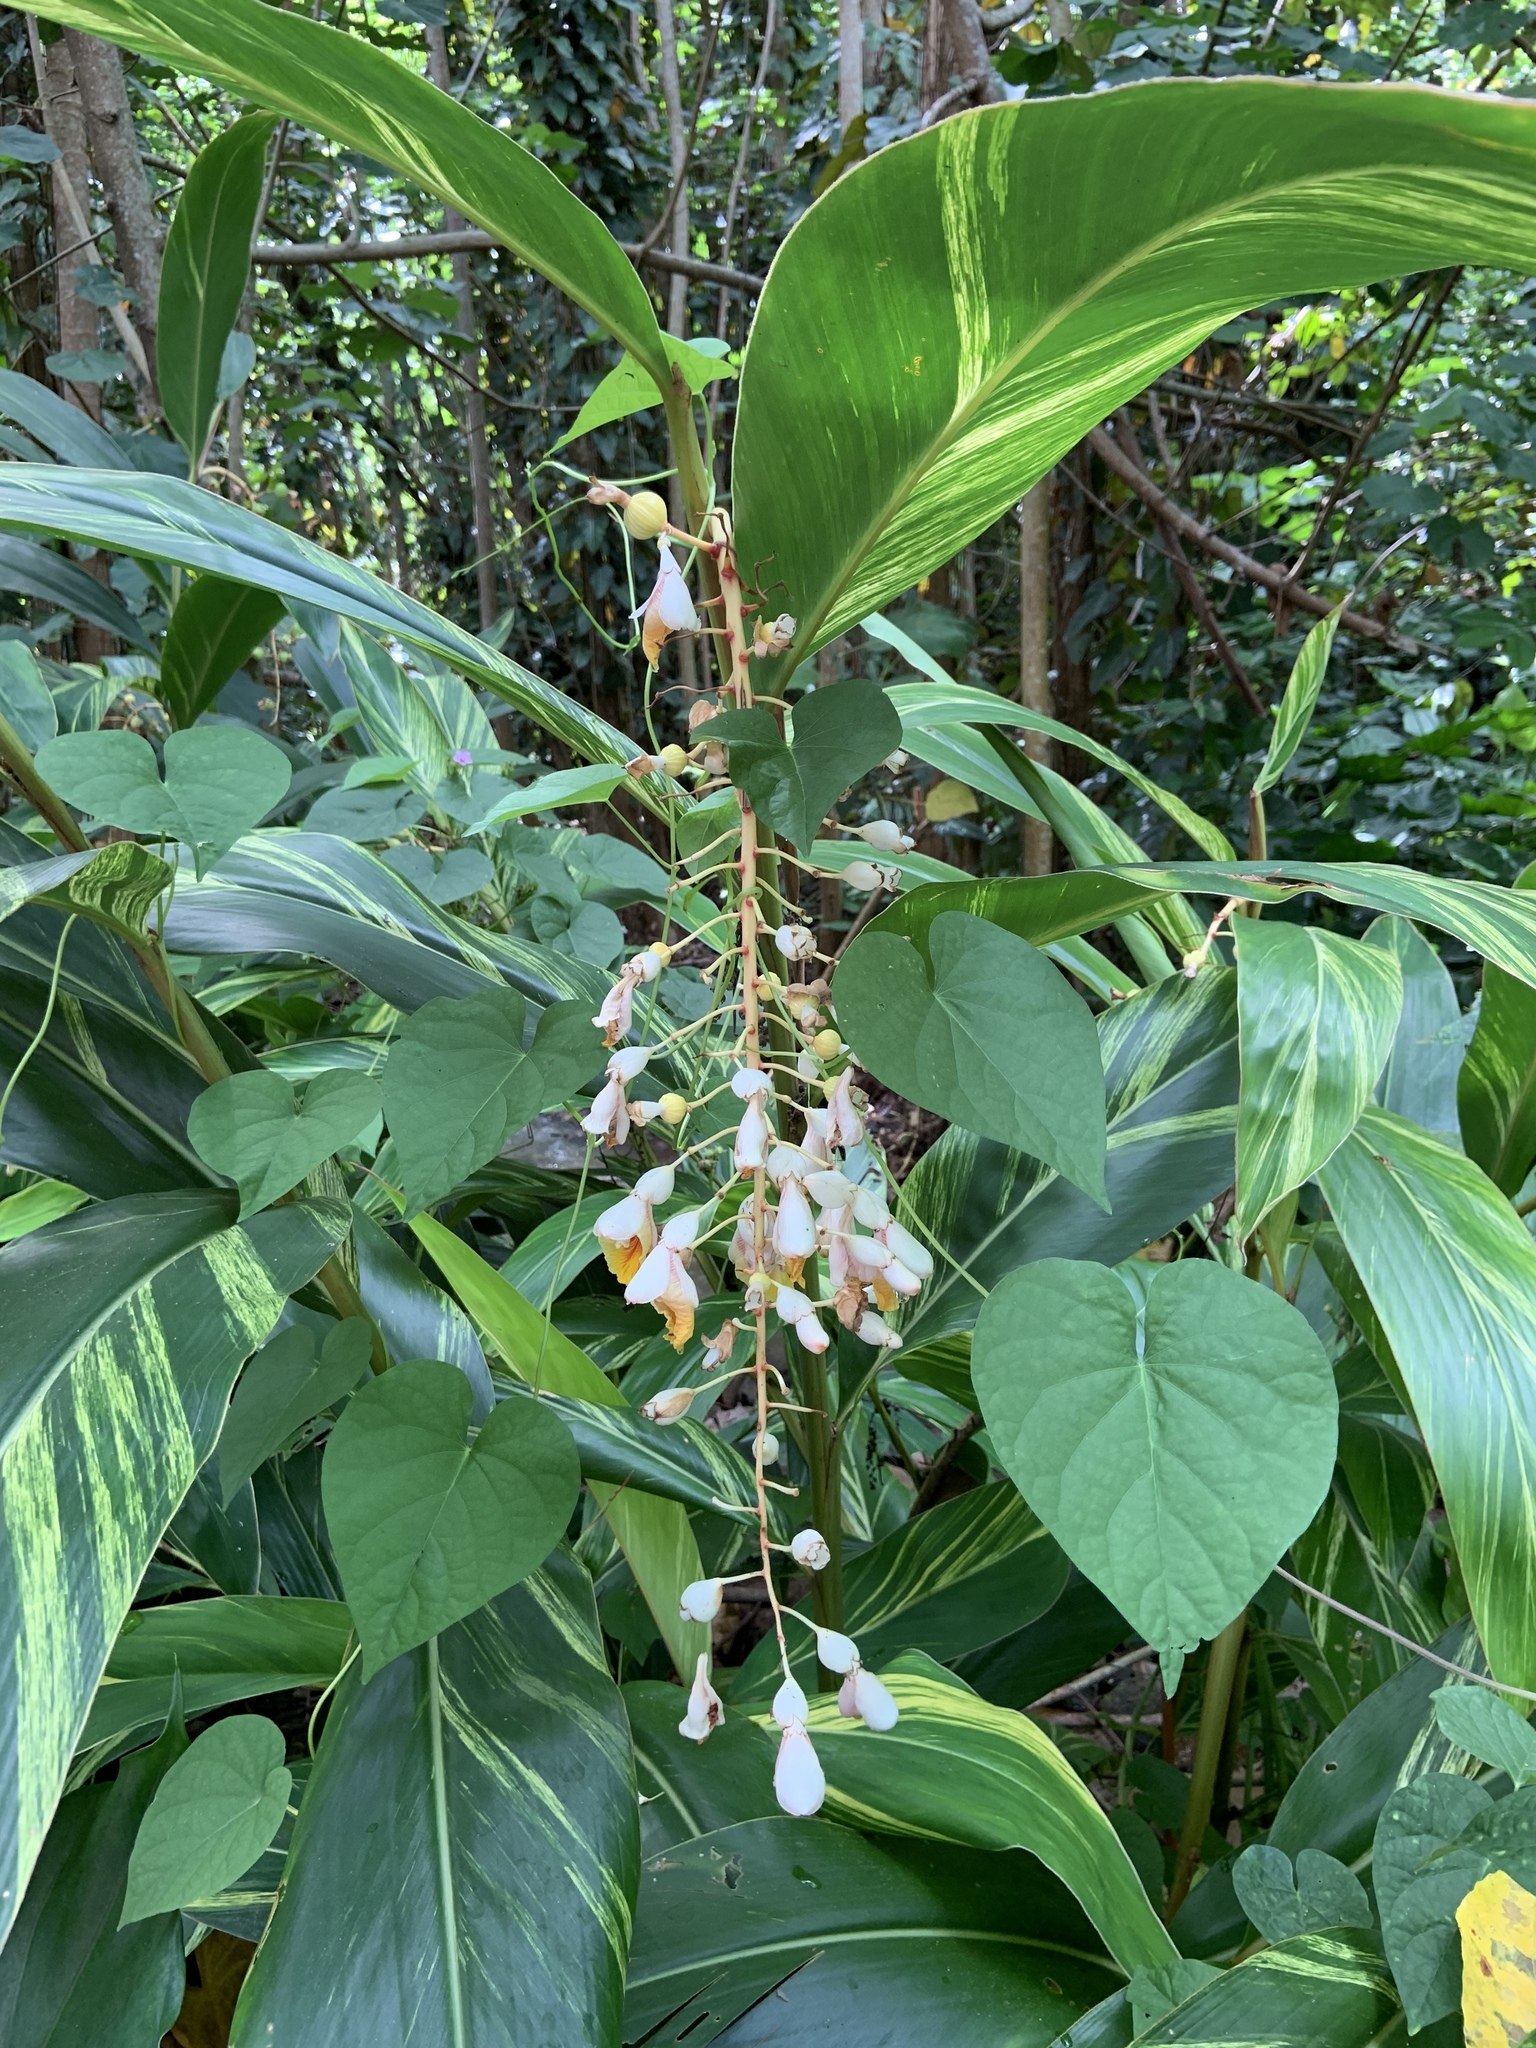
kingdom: Plantae
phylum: Tracheophyta
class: Liliopsida
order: Zingiberales
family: Zingiberaceae
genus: Alpinia
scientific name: Alpinia zerumbet
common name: Shellplant
